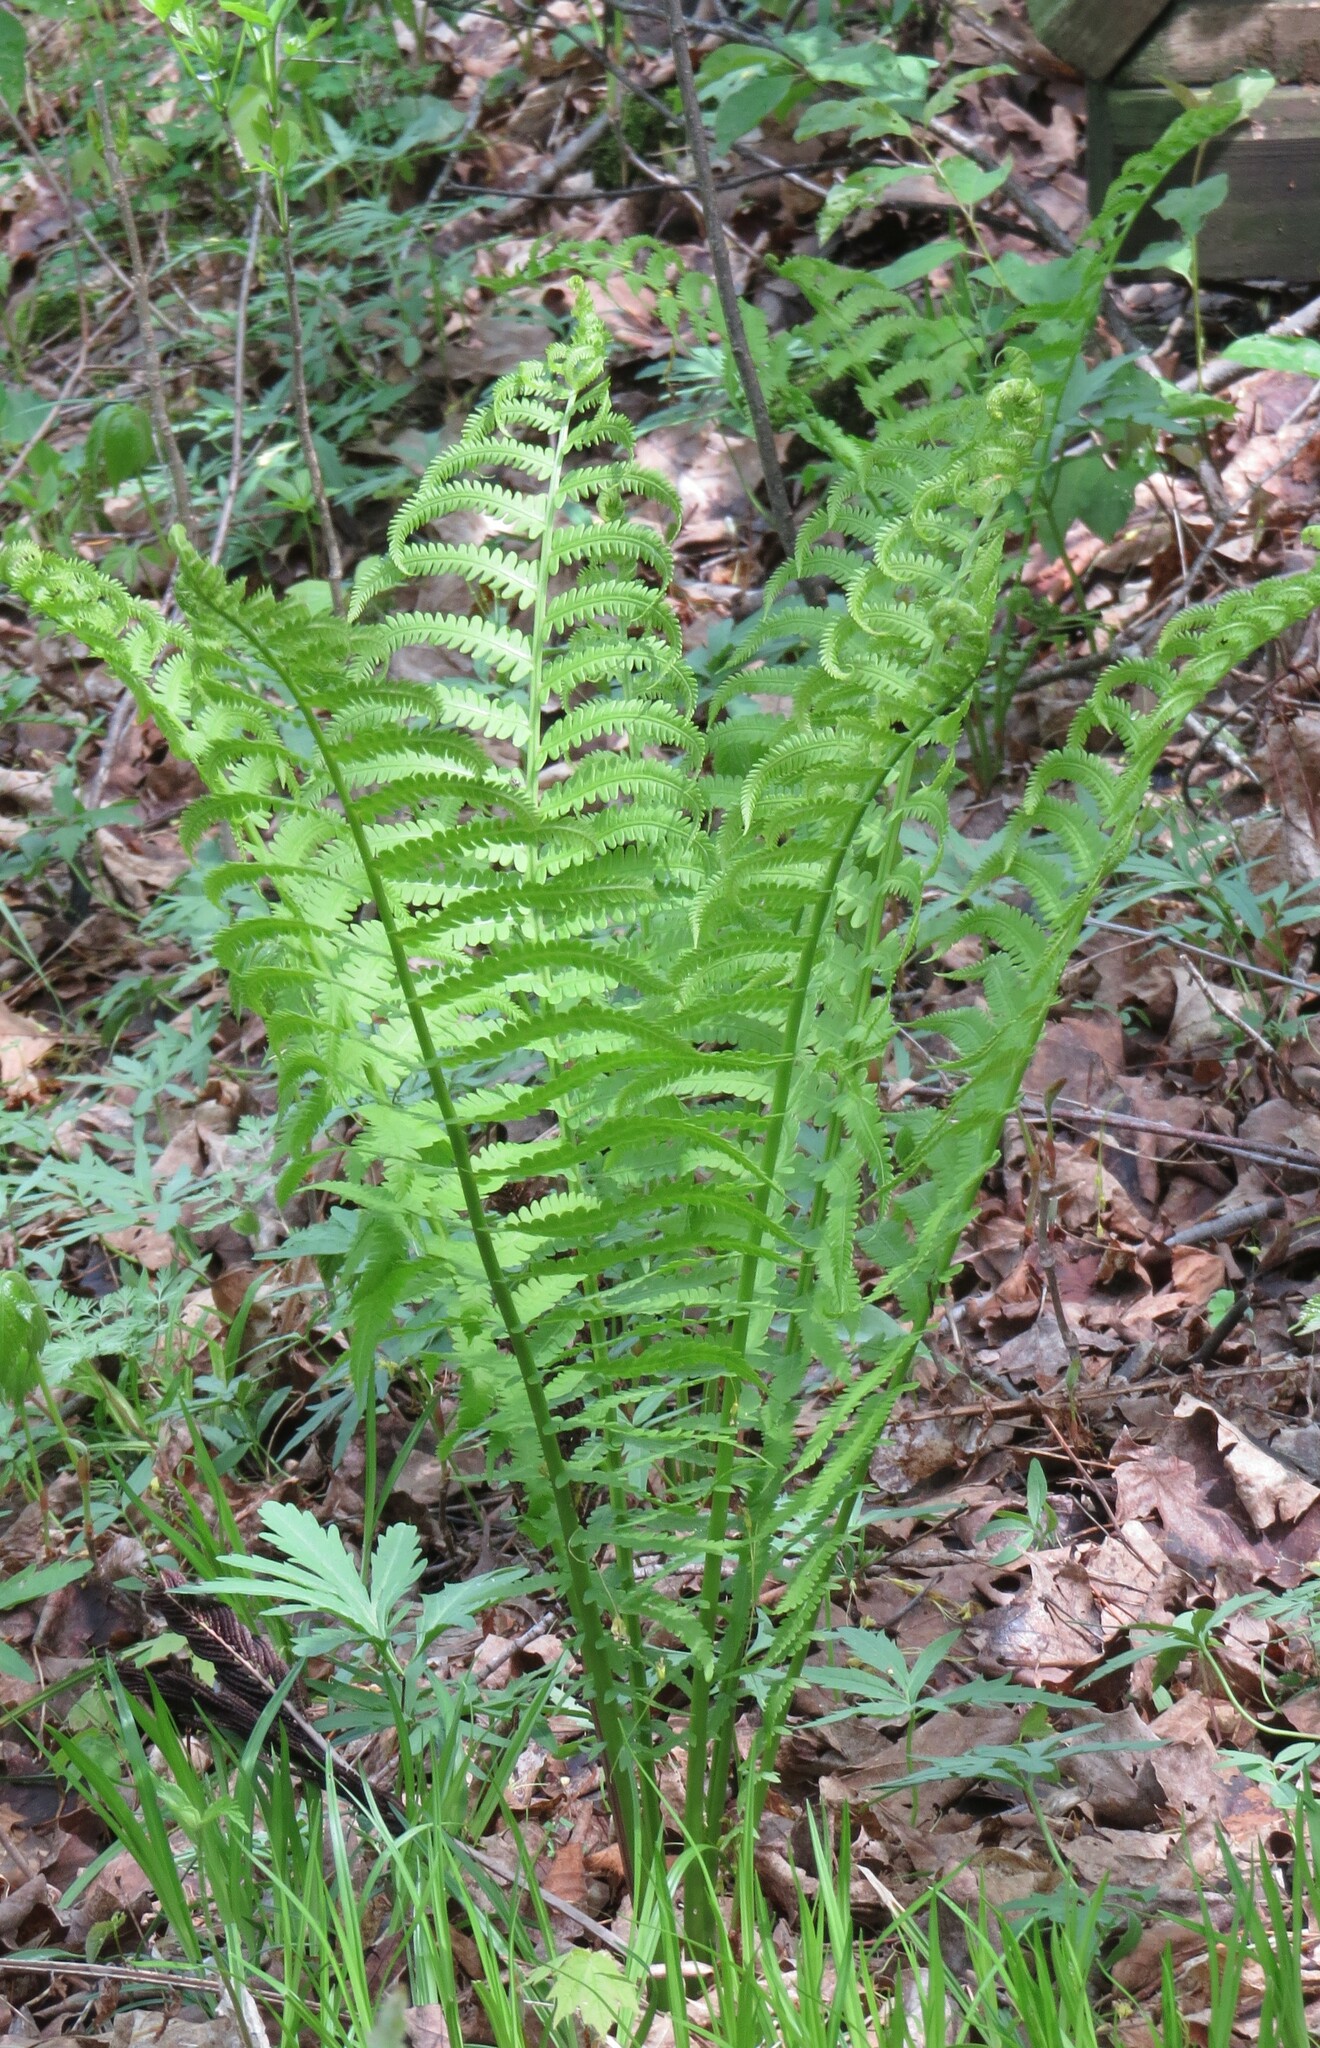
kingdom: Plantae
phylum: Tracheophyta
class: Polypodiopsida
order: Polypodiales
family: Onocleaceae
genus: Matteuccia
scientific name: Matteuccia struthiopteris
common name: Ostrich fern
